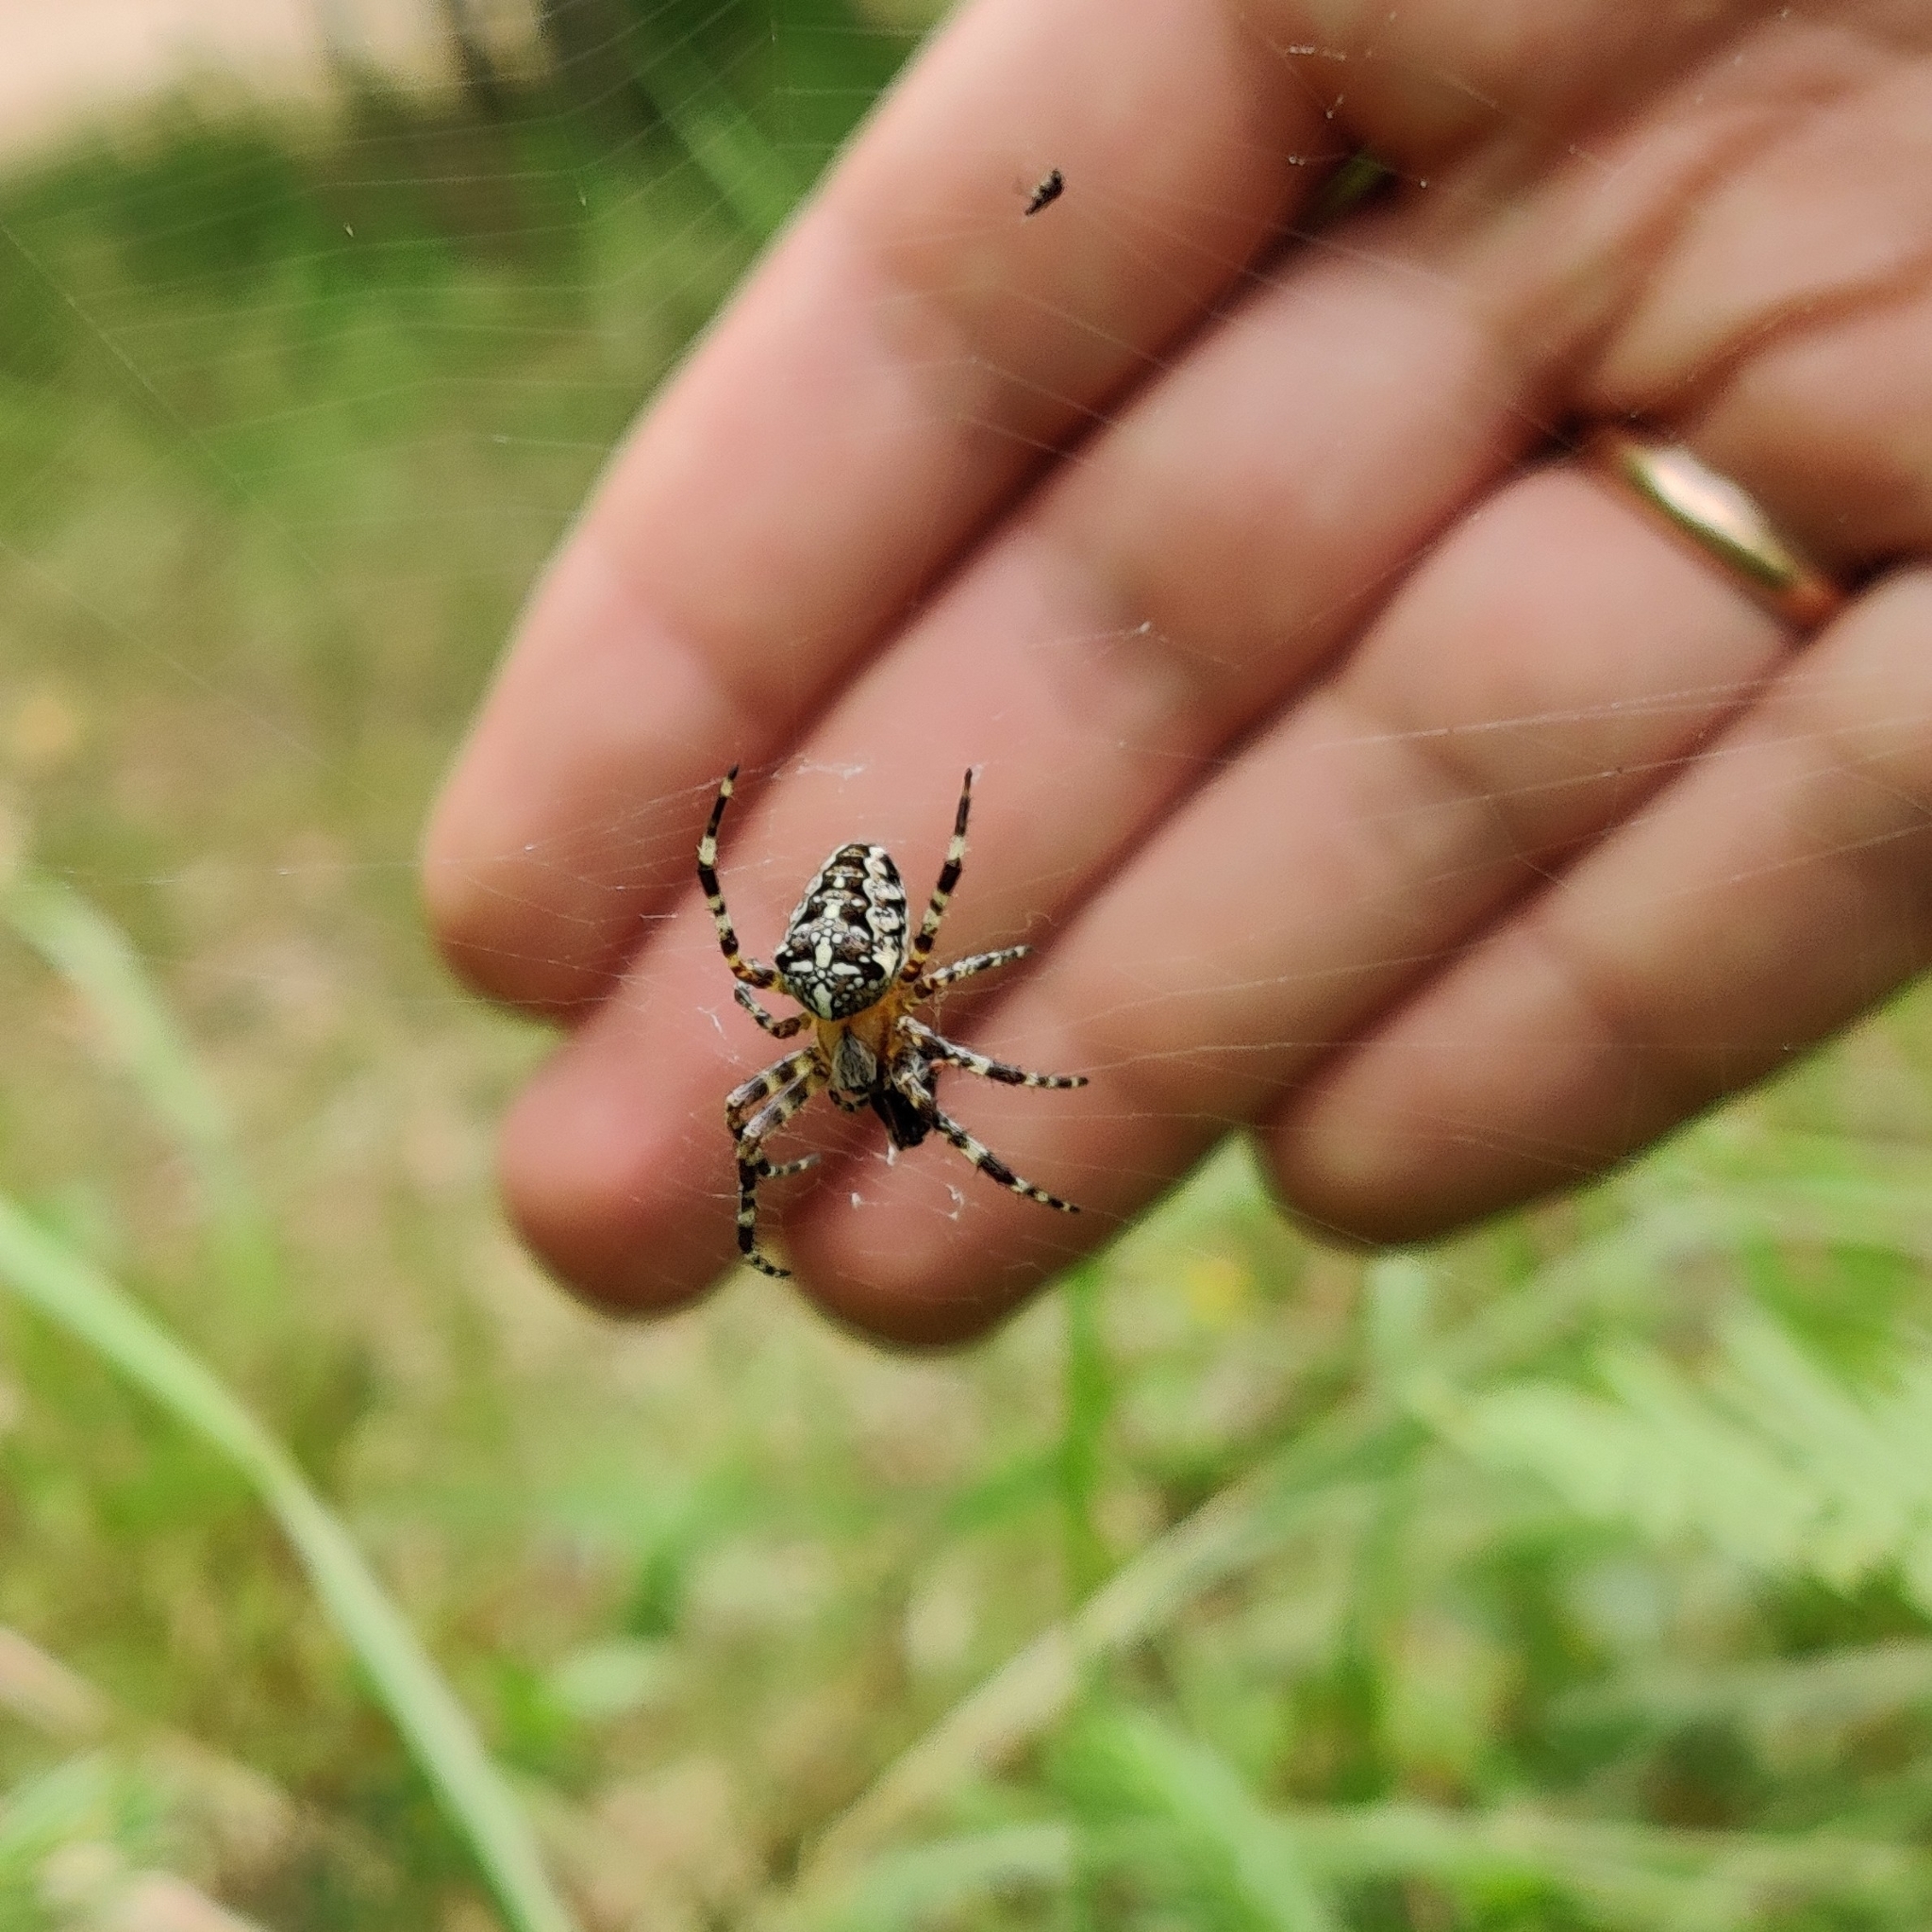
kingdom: Animalia
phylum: Arthropoda
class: Arachnida
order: Araneae
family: Araneidae
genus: Araneus
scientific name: Araneus diadematus
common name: Cross orbweaver
